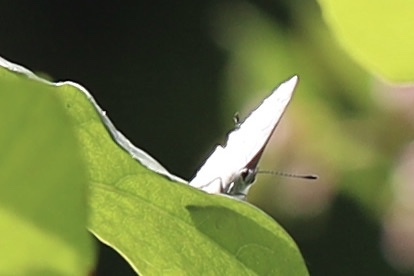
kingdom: Animalia
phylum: Arthropoda
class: Insecta
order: Lepidoptera
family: Lycaenidae
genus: Celastrina
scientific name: Celastrina ladon
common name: Spring azure
